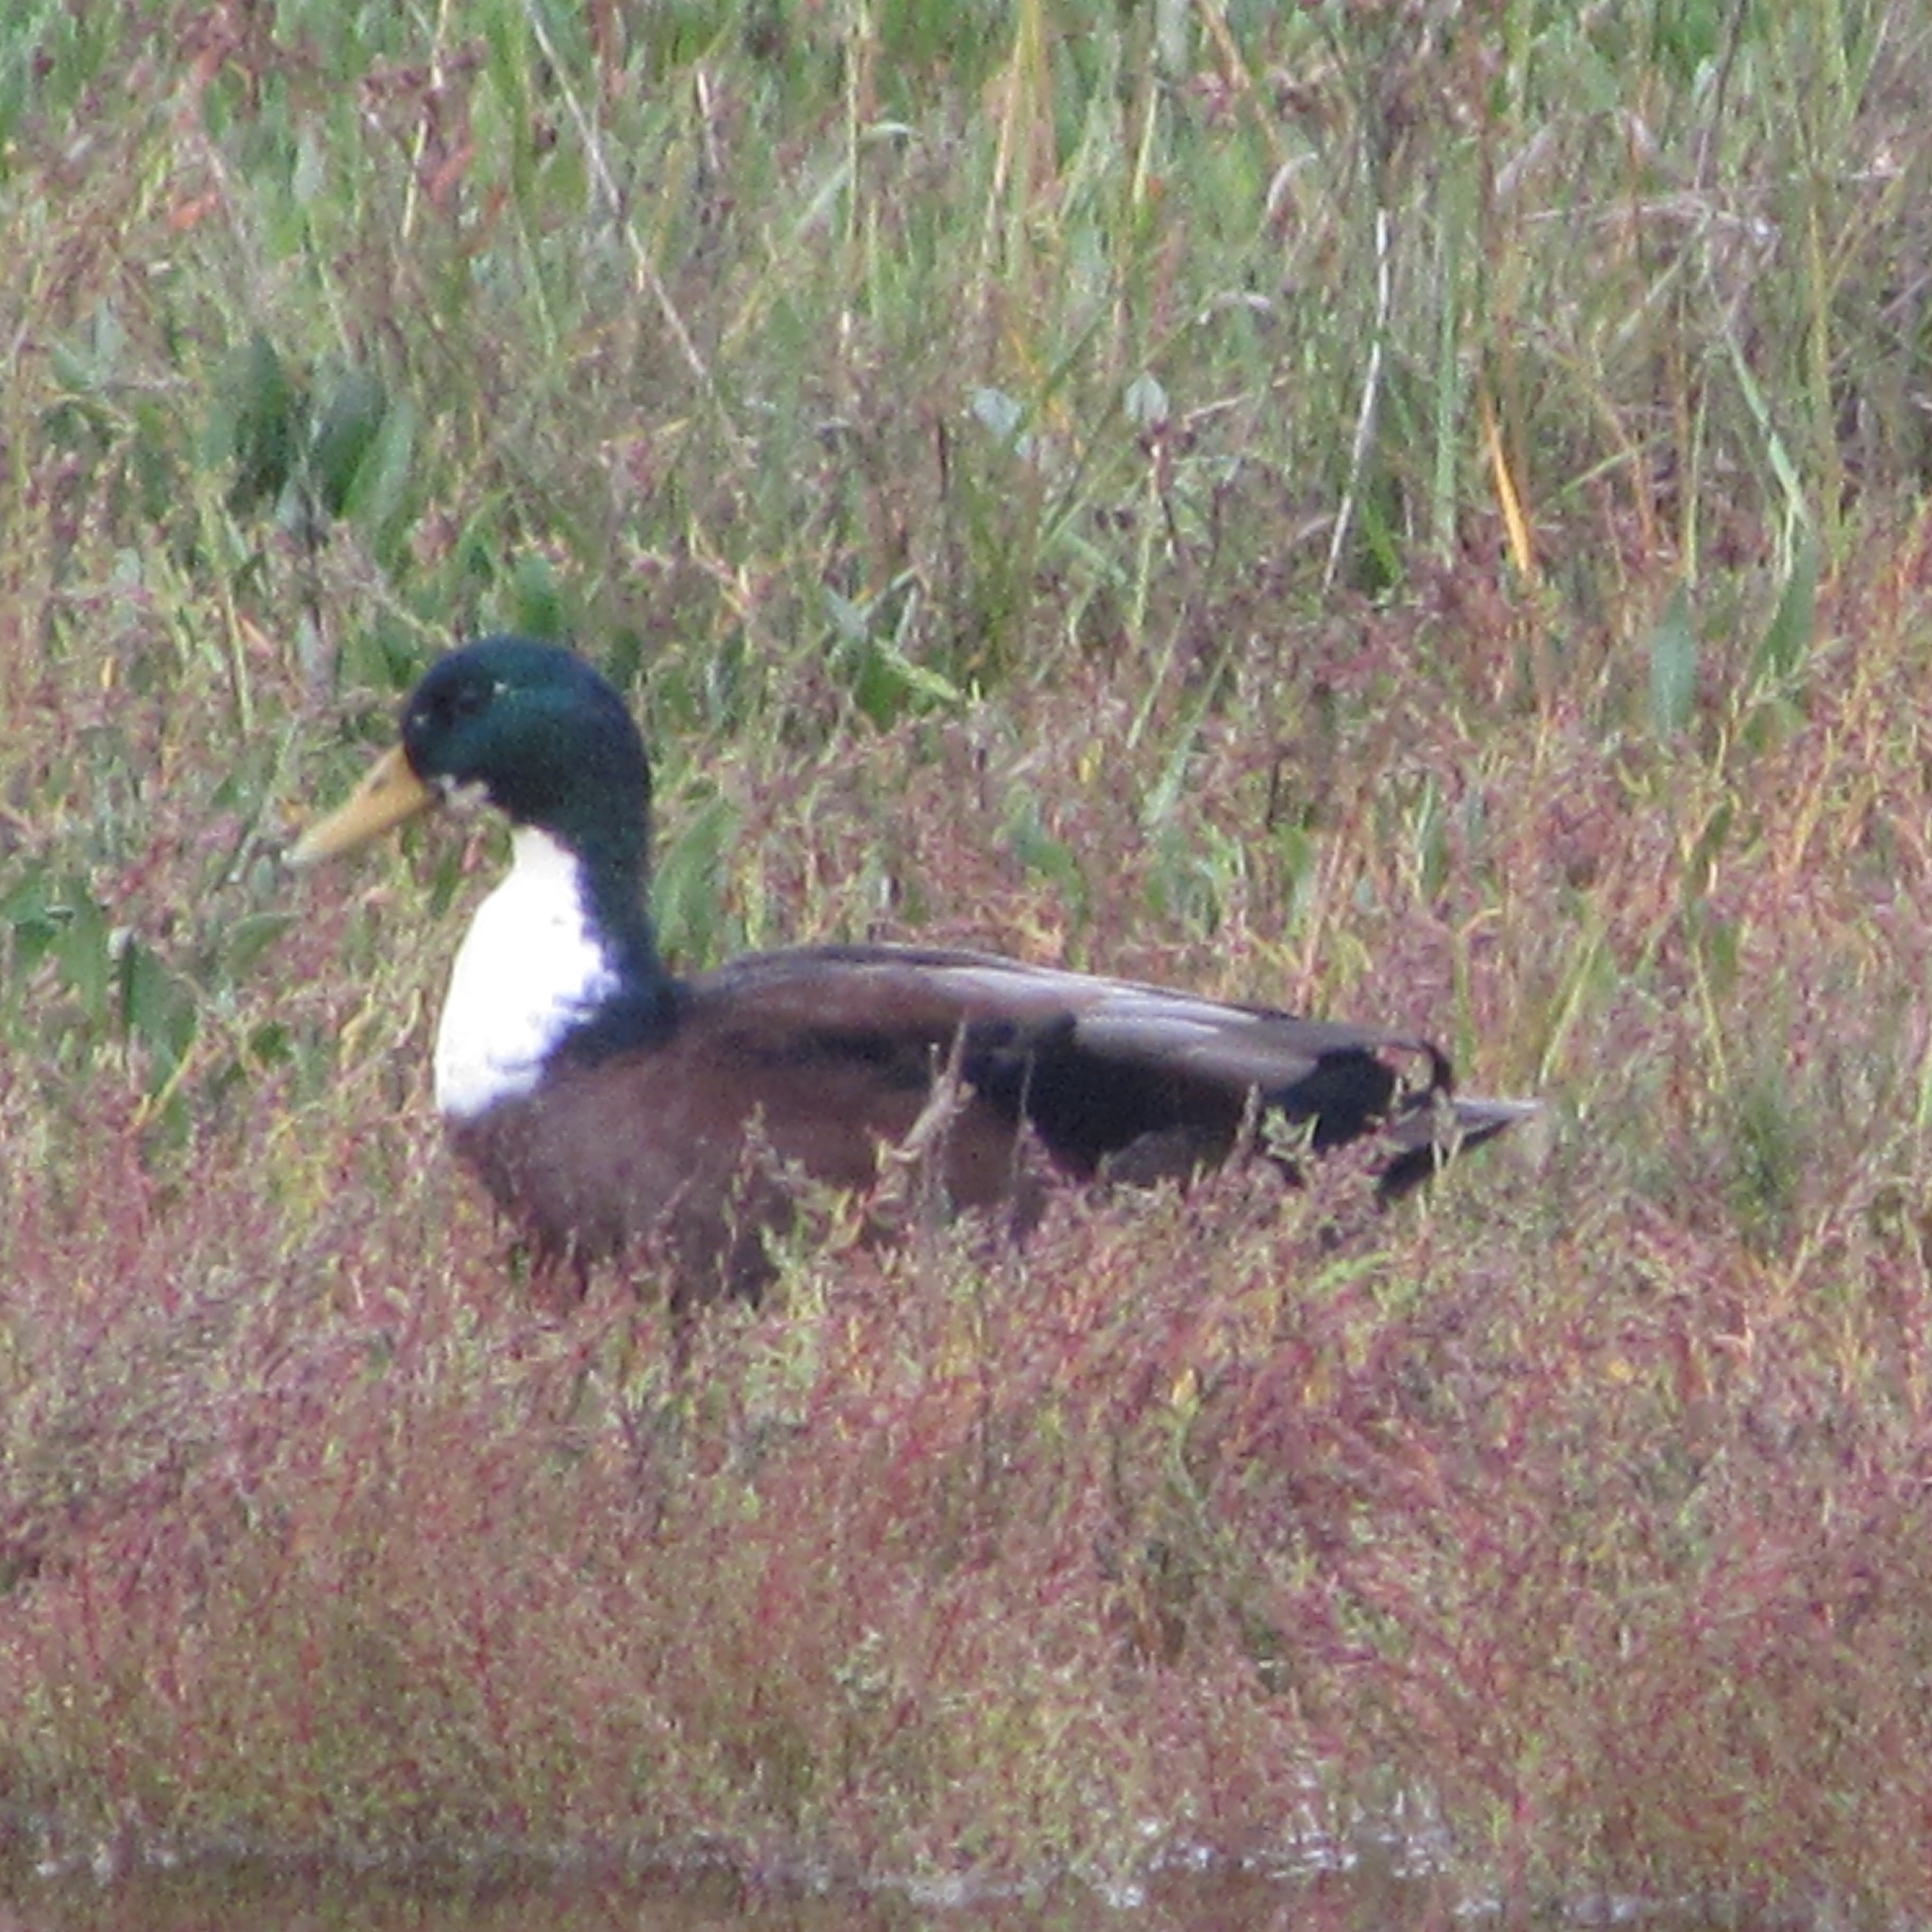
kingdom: Animalia
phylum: Chordata
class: Aves
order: Anseriformes
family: Anatidae
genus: Anas
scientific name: Anas platyrhynchos
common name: Mallard
